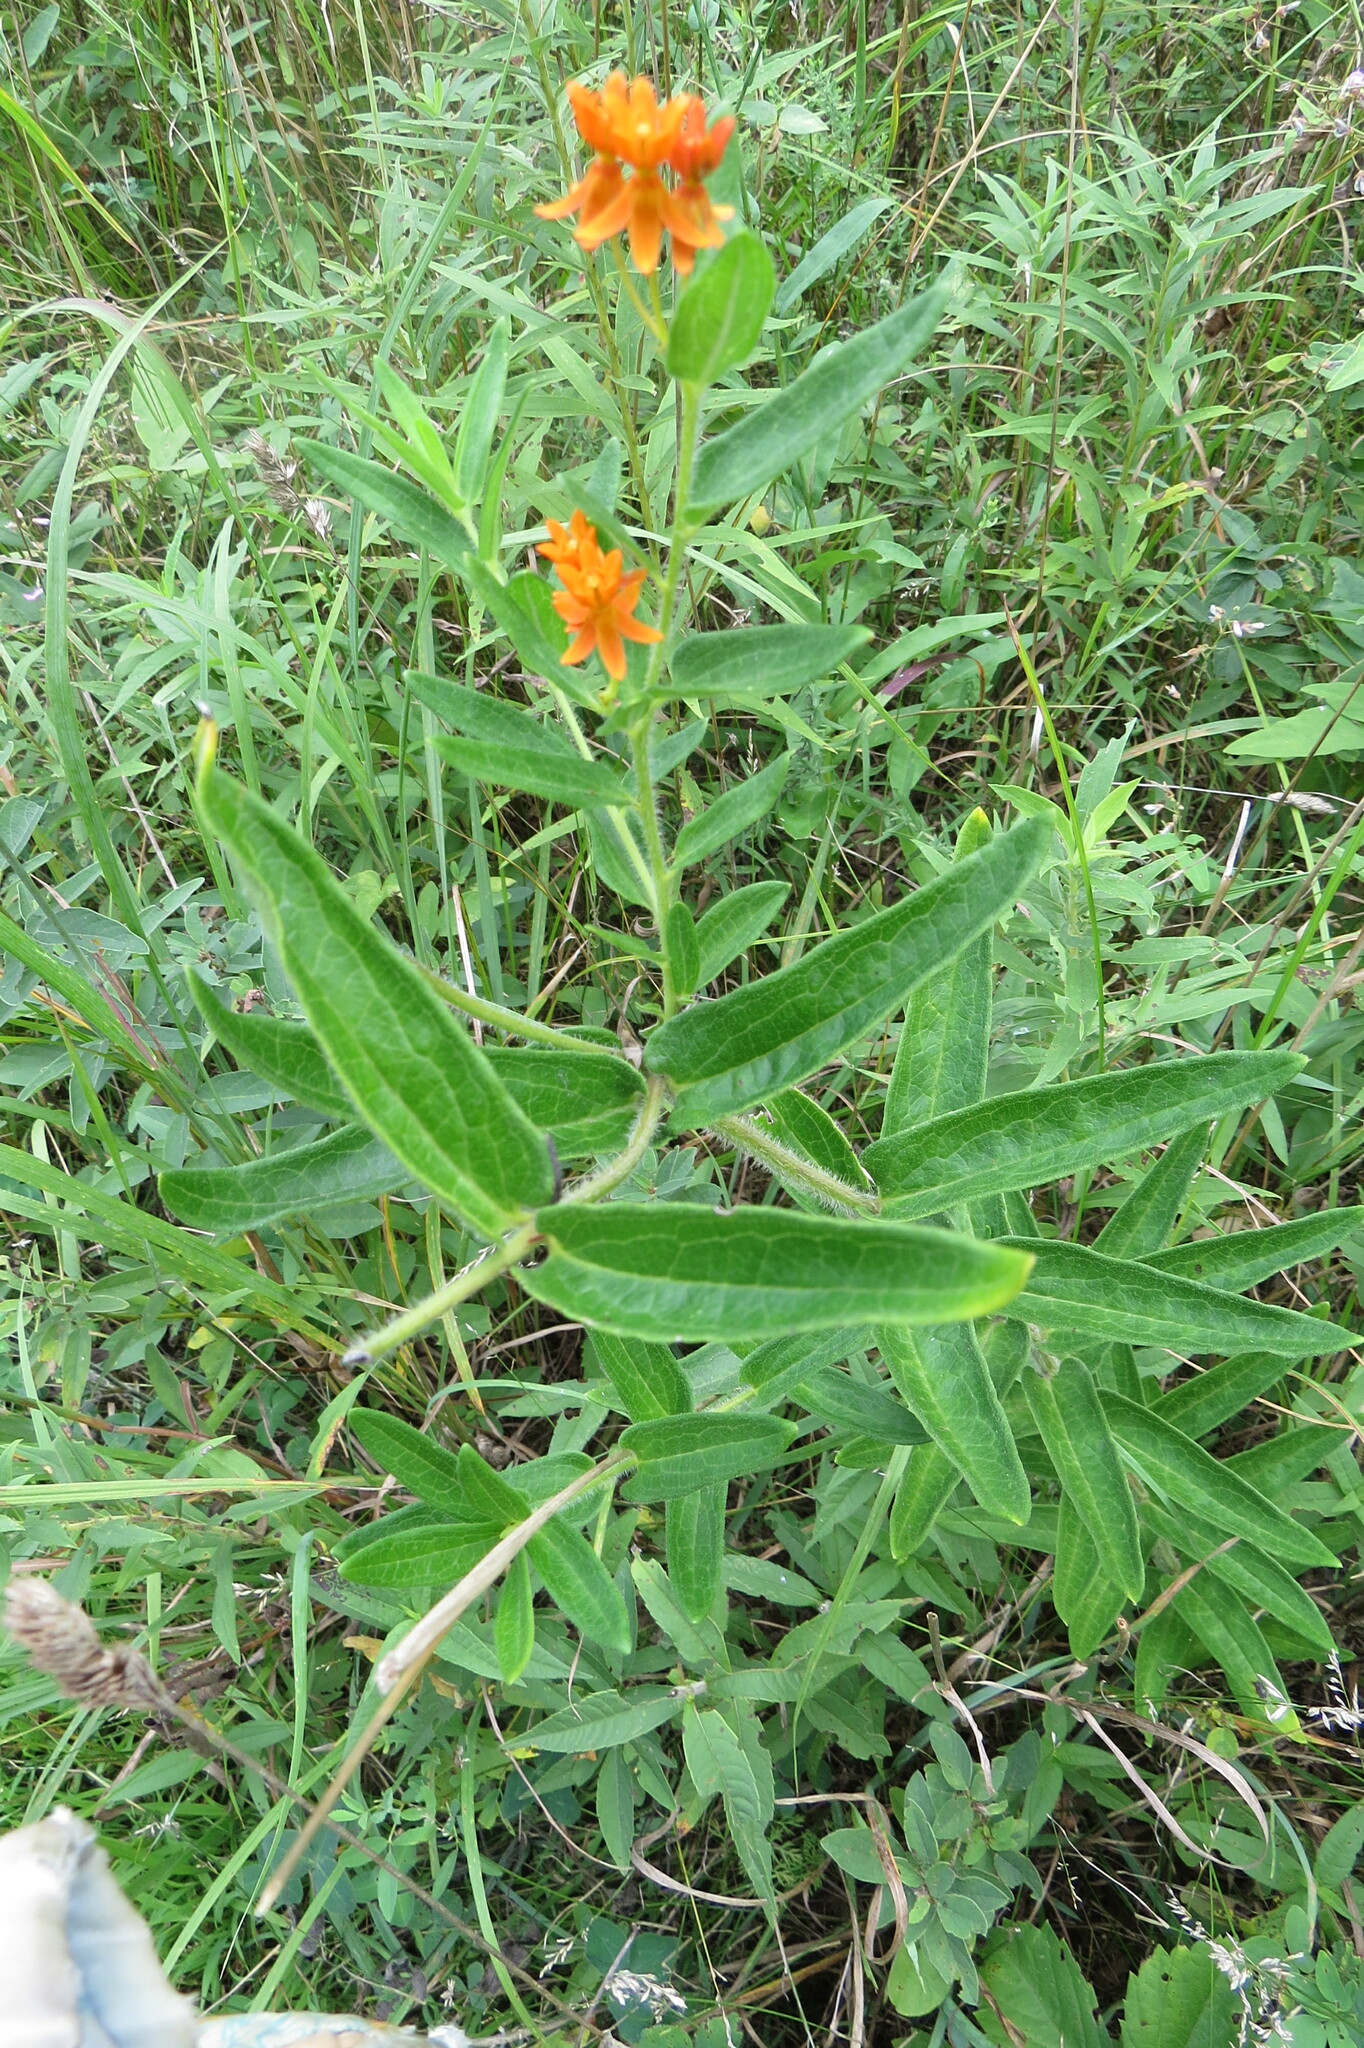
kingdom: Plantae
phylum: Tracheophyta
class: Magnoliopsida
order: Gentianales
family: Apocynaceae
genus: Asclepias
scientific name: Asclepias tuberosa
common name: Butterfly milkweed
